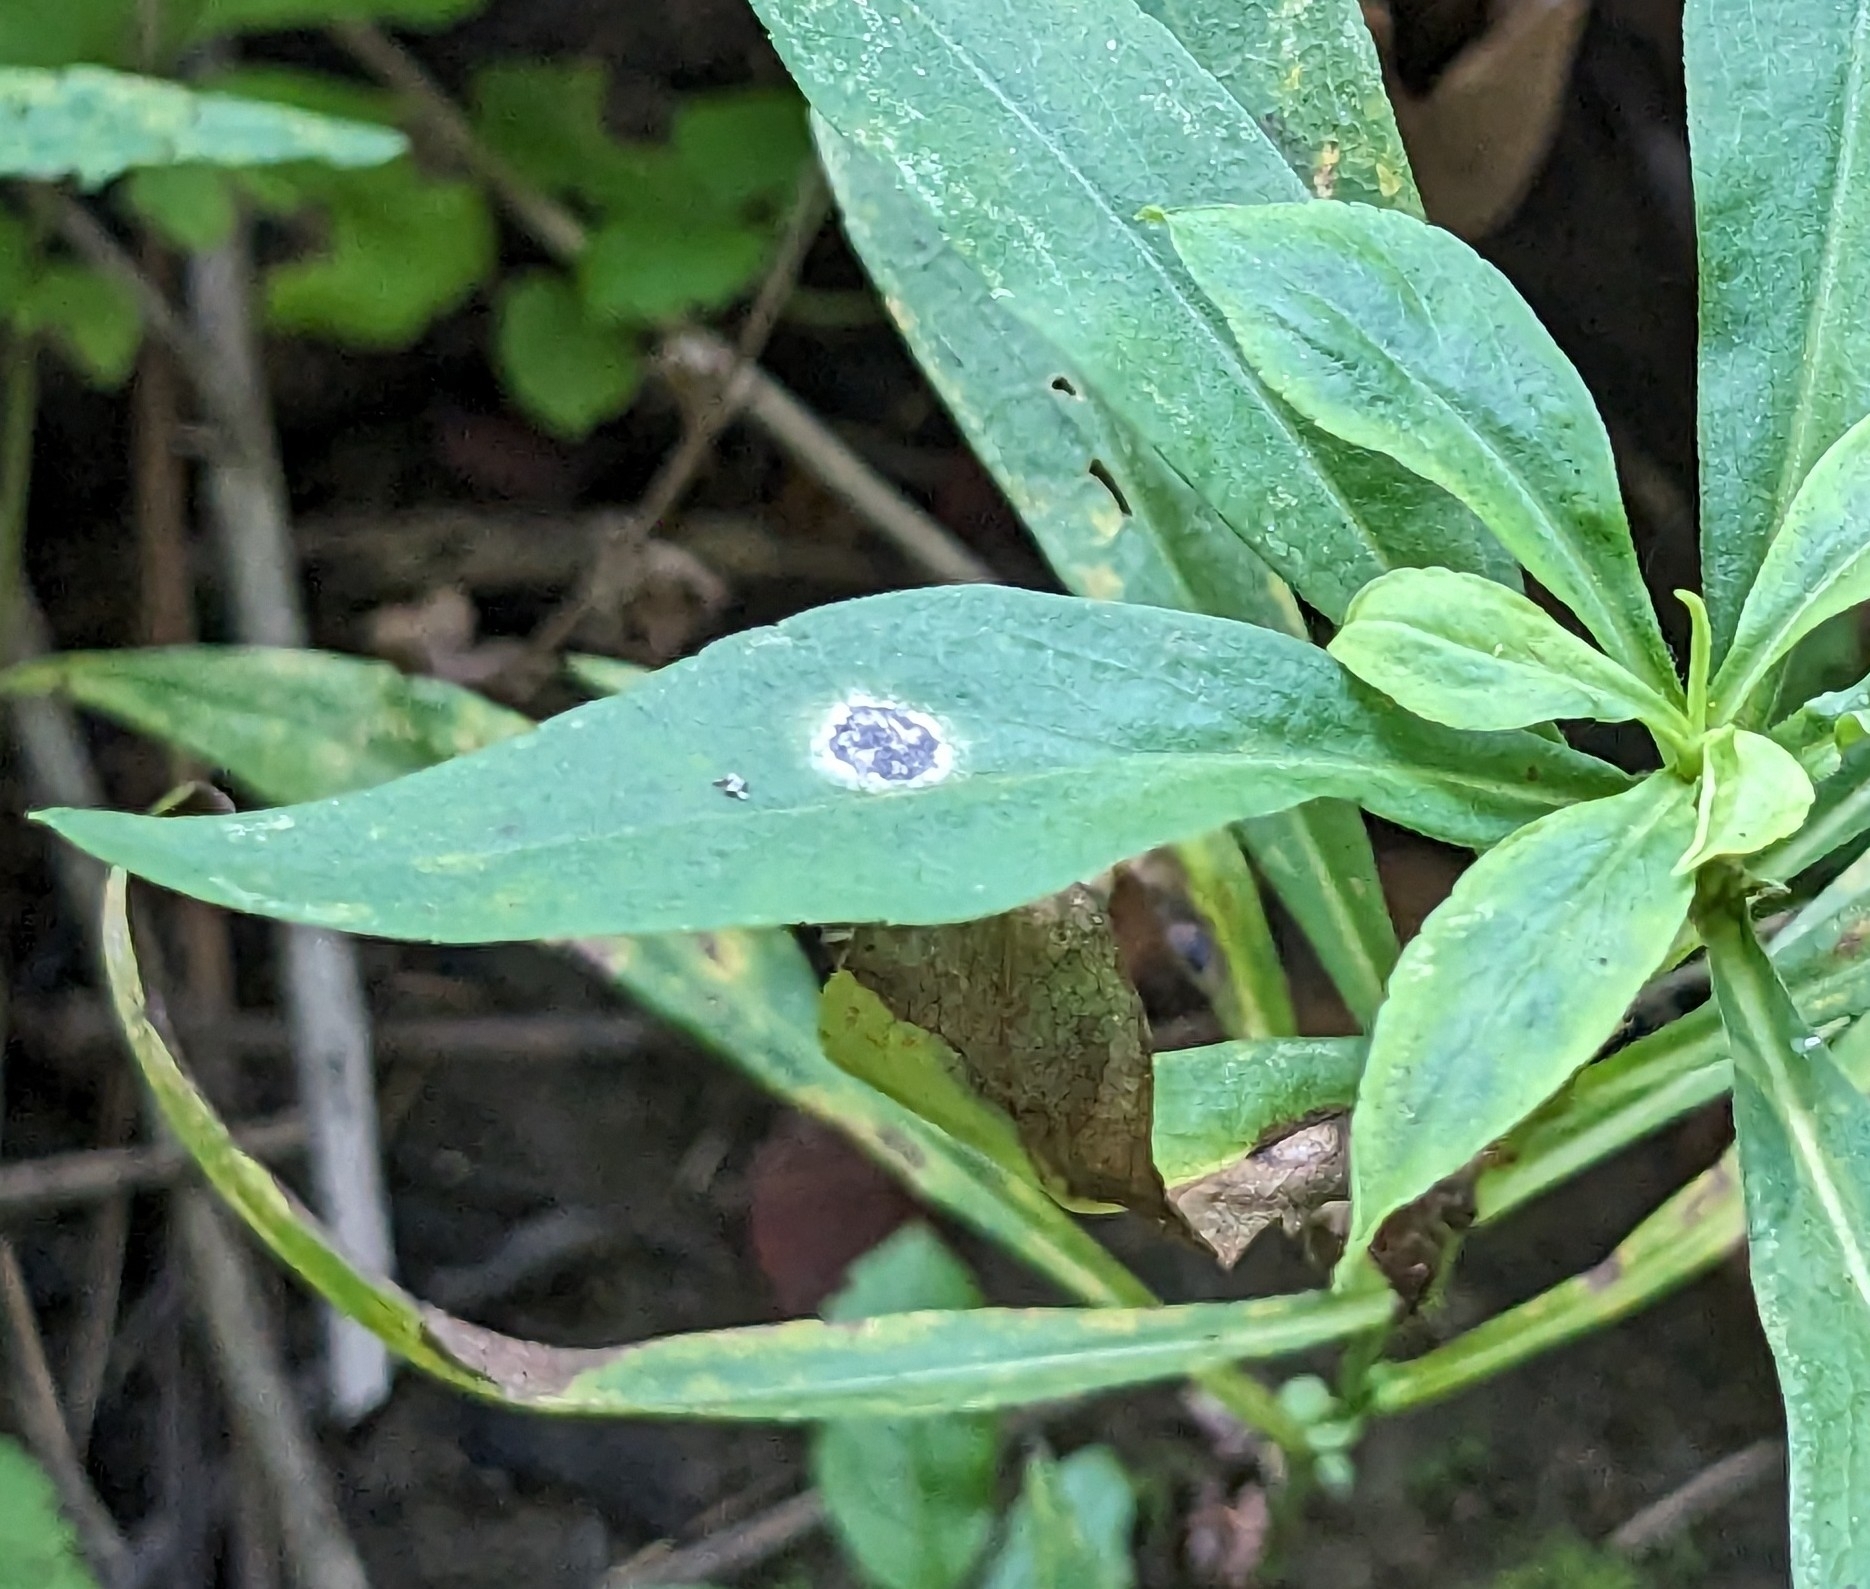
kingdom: Fungi
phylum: Ascomycota
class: Dothideomycetes
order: Botryosphaeriales
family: Botryosphaeriaceae
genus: Botryosphaeria
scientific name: Botryosphaeria dothidea
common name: Asteromyia gall midge fungus
